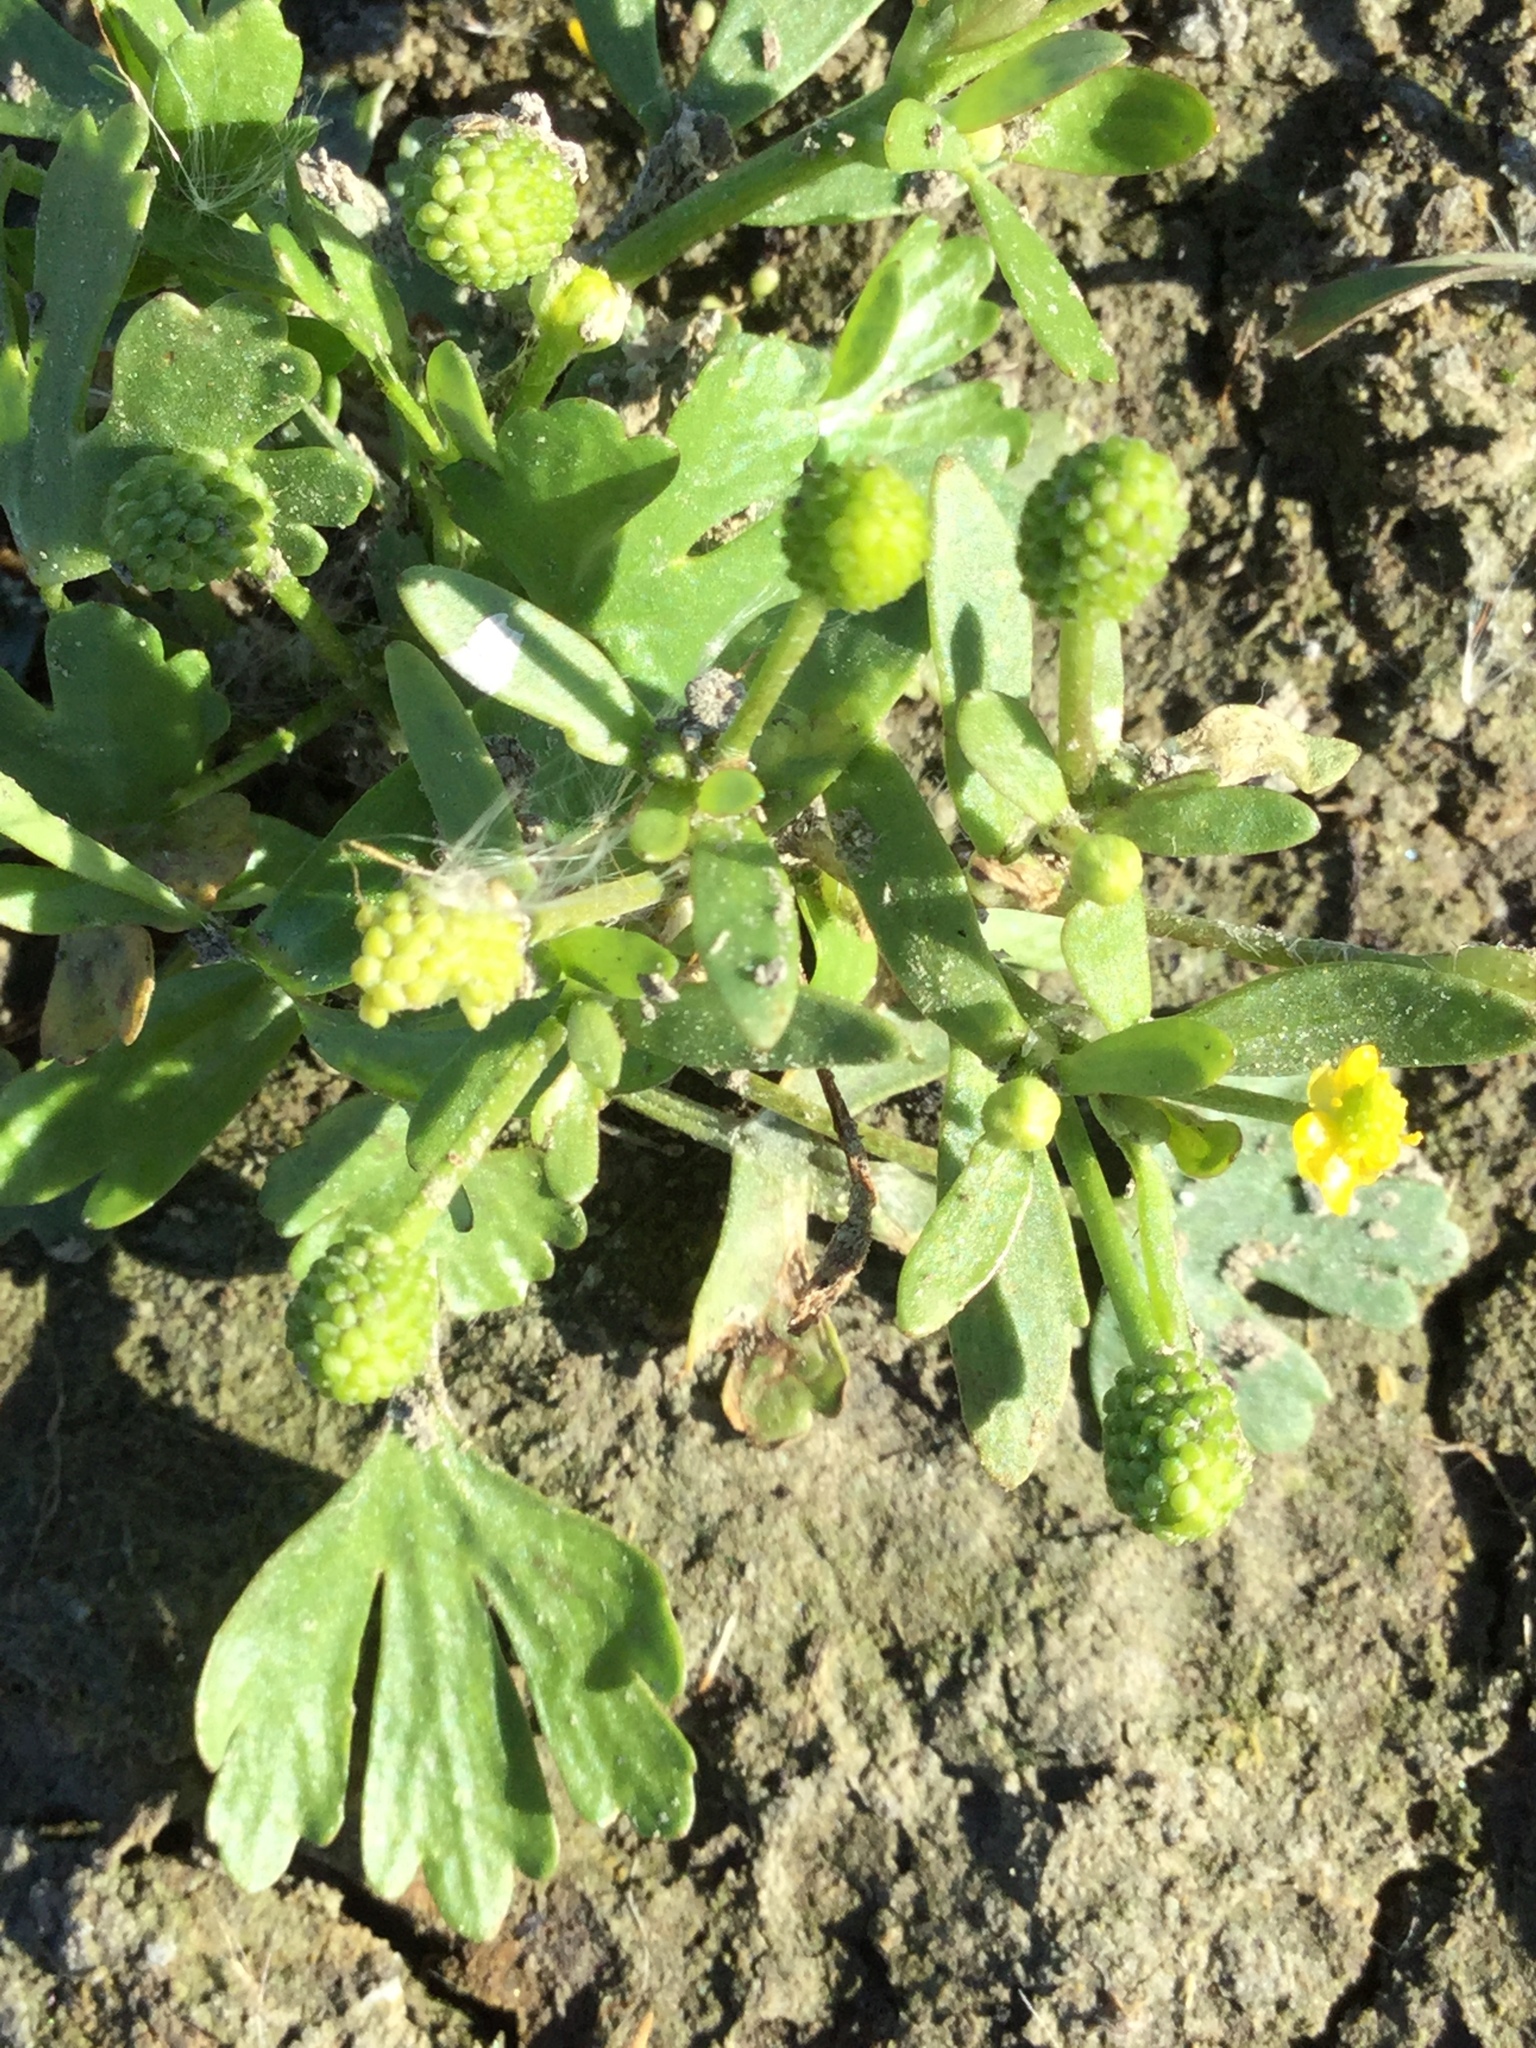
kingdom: Plantae
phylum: Tracheophyta
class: Magnoliopsida
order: Ranunculales
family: Ranunculaceae
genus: Ranunculus
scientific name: Ranunculus sceleratus
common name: Celery-leaved buttercup
